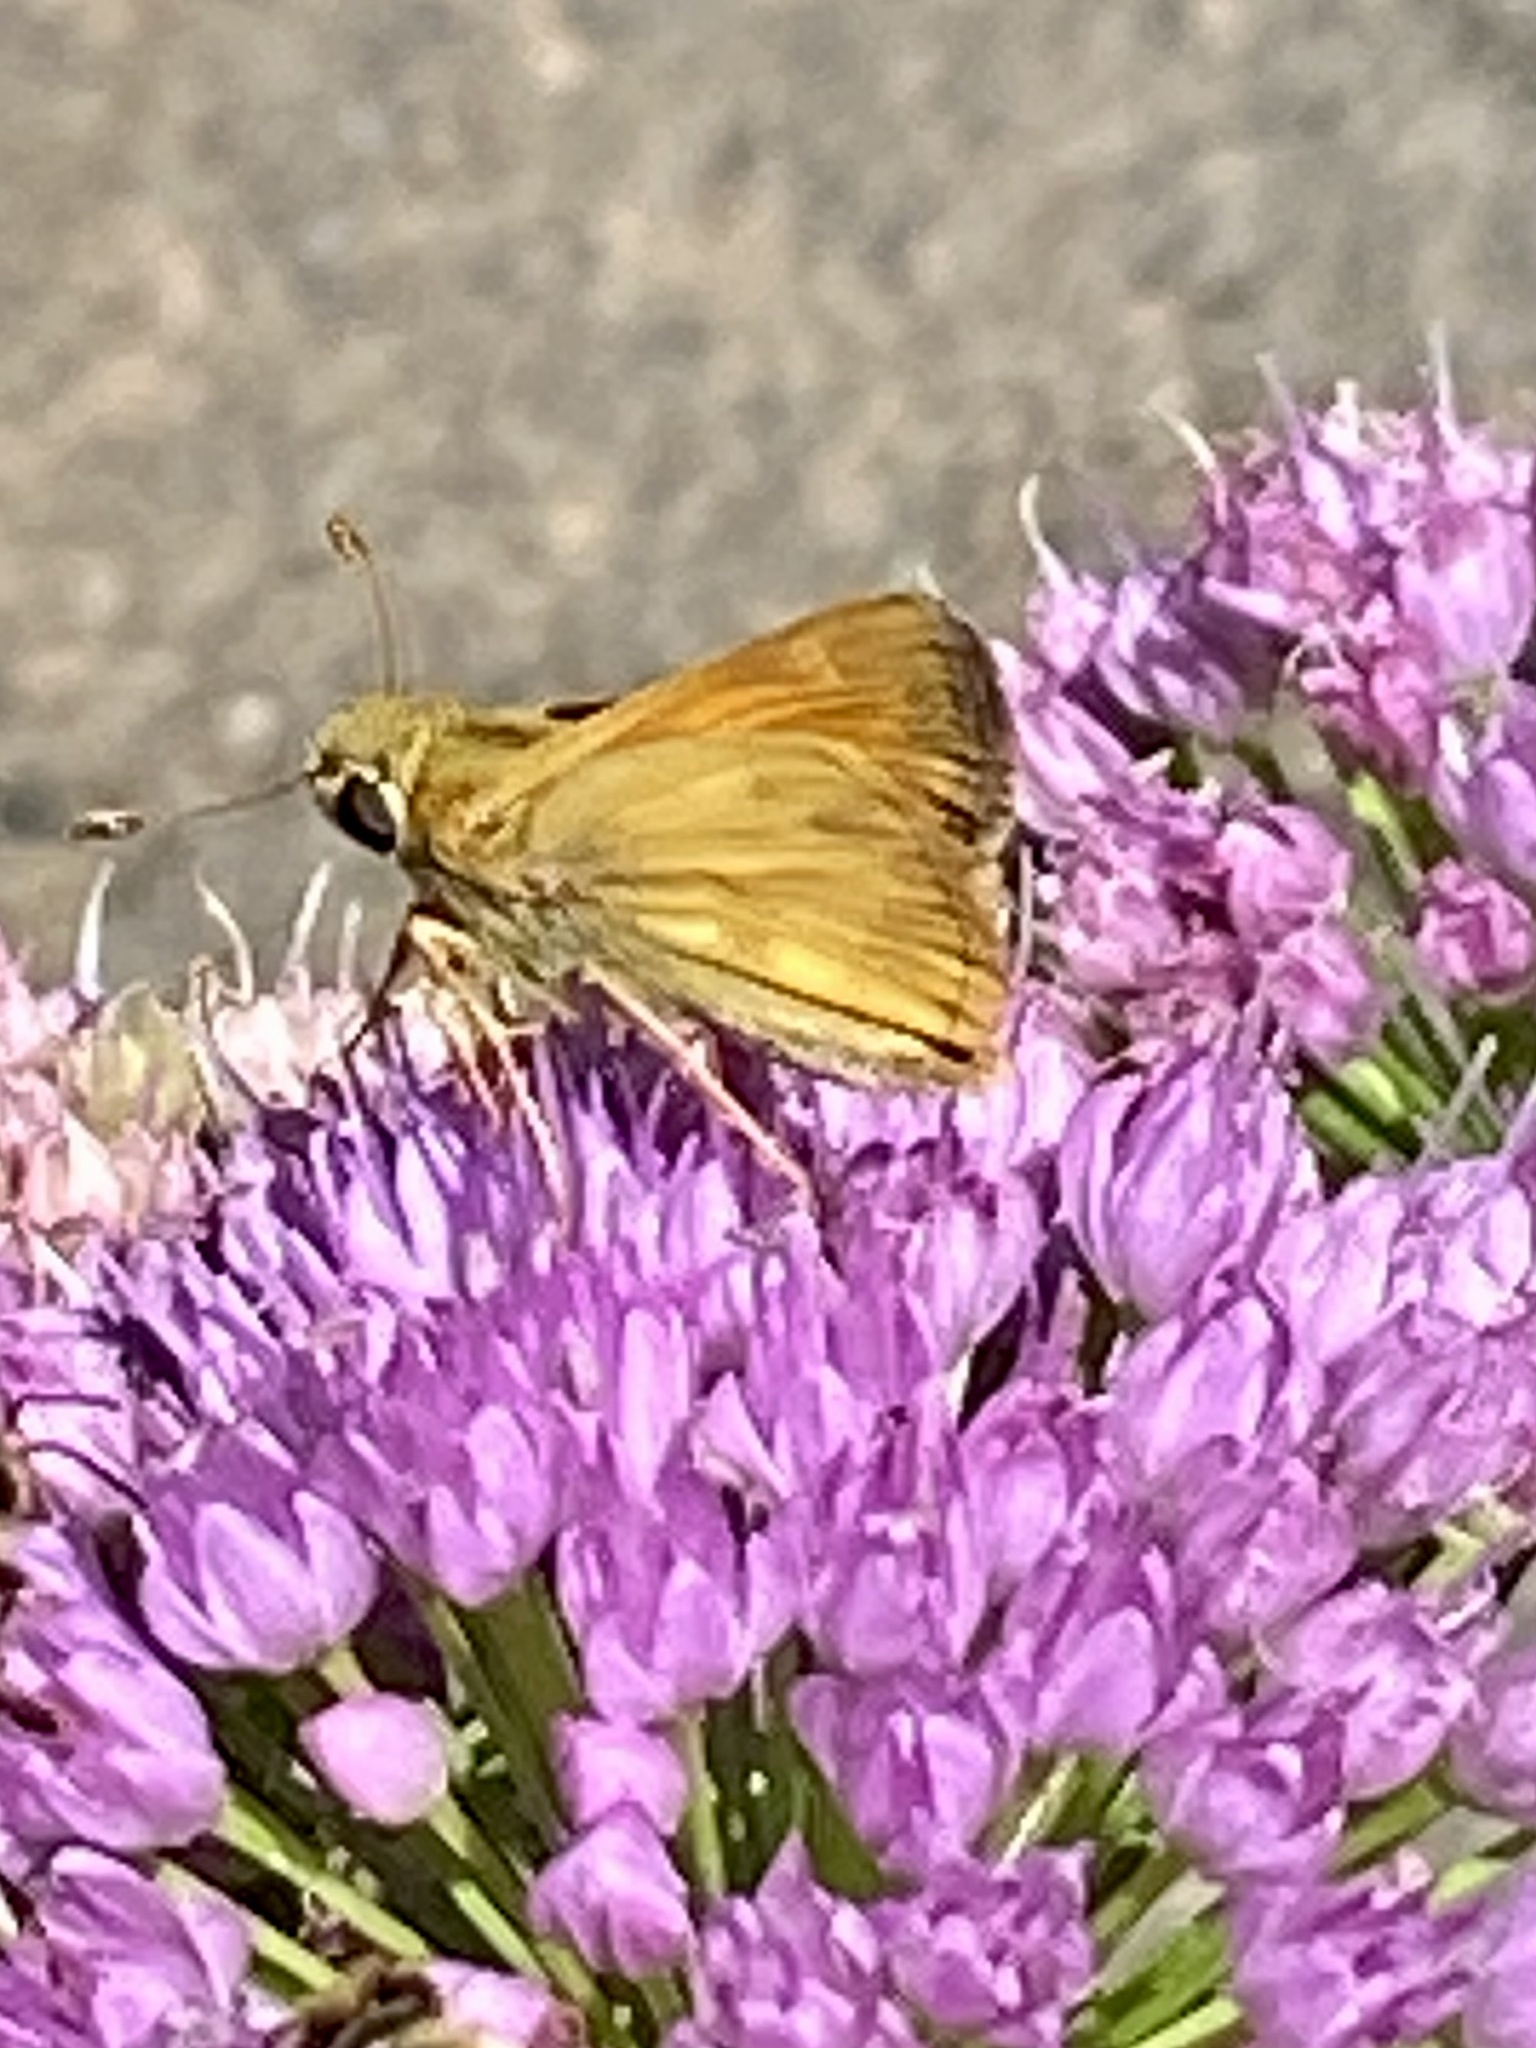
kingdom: Animalia
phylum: Arthropoda
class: Insecta
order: Lepidoptera
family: Hesperiidae
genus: Atalopedes
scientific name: Atalopedes
